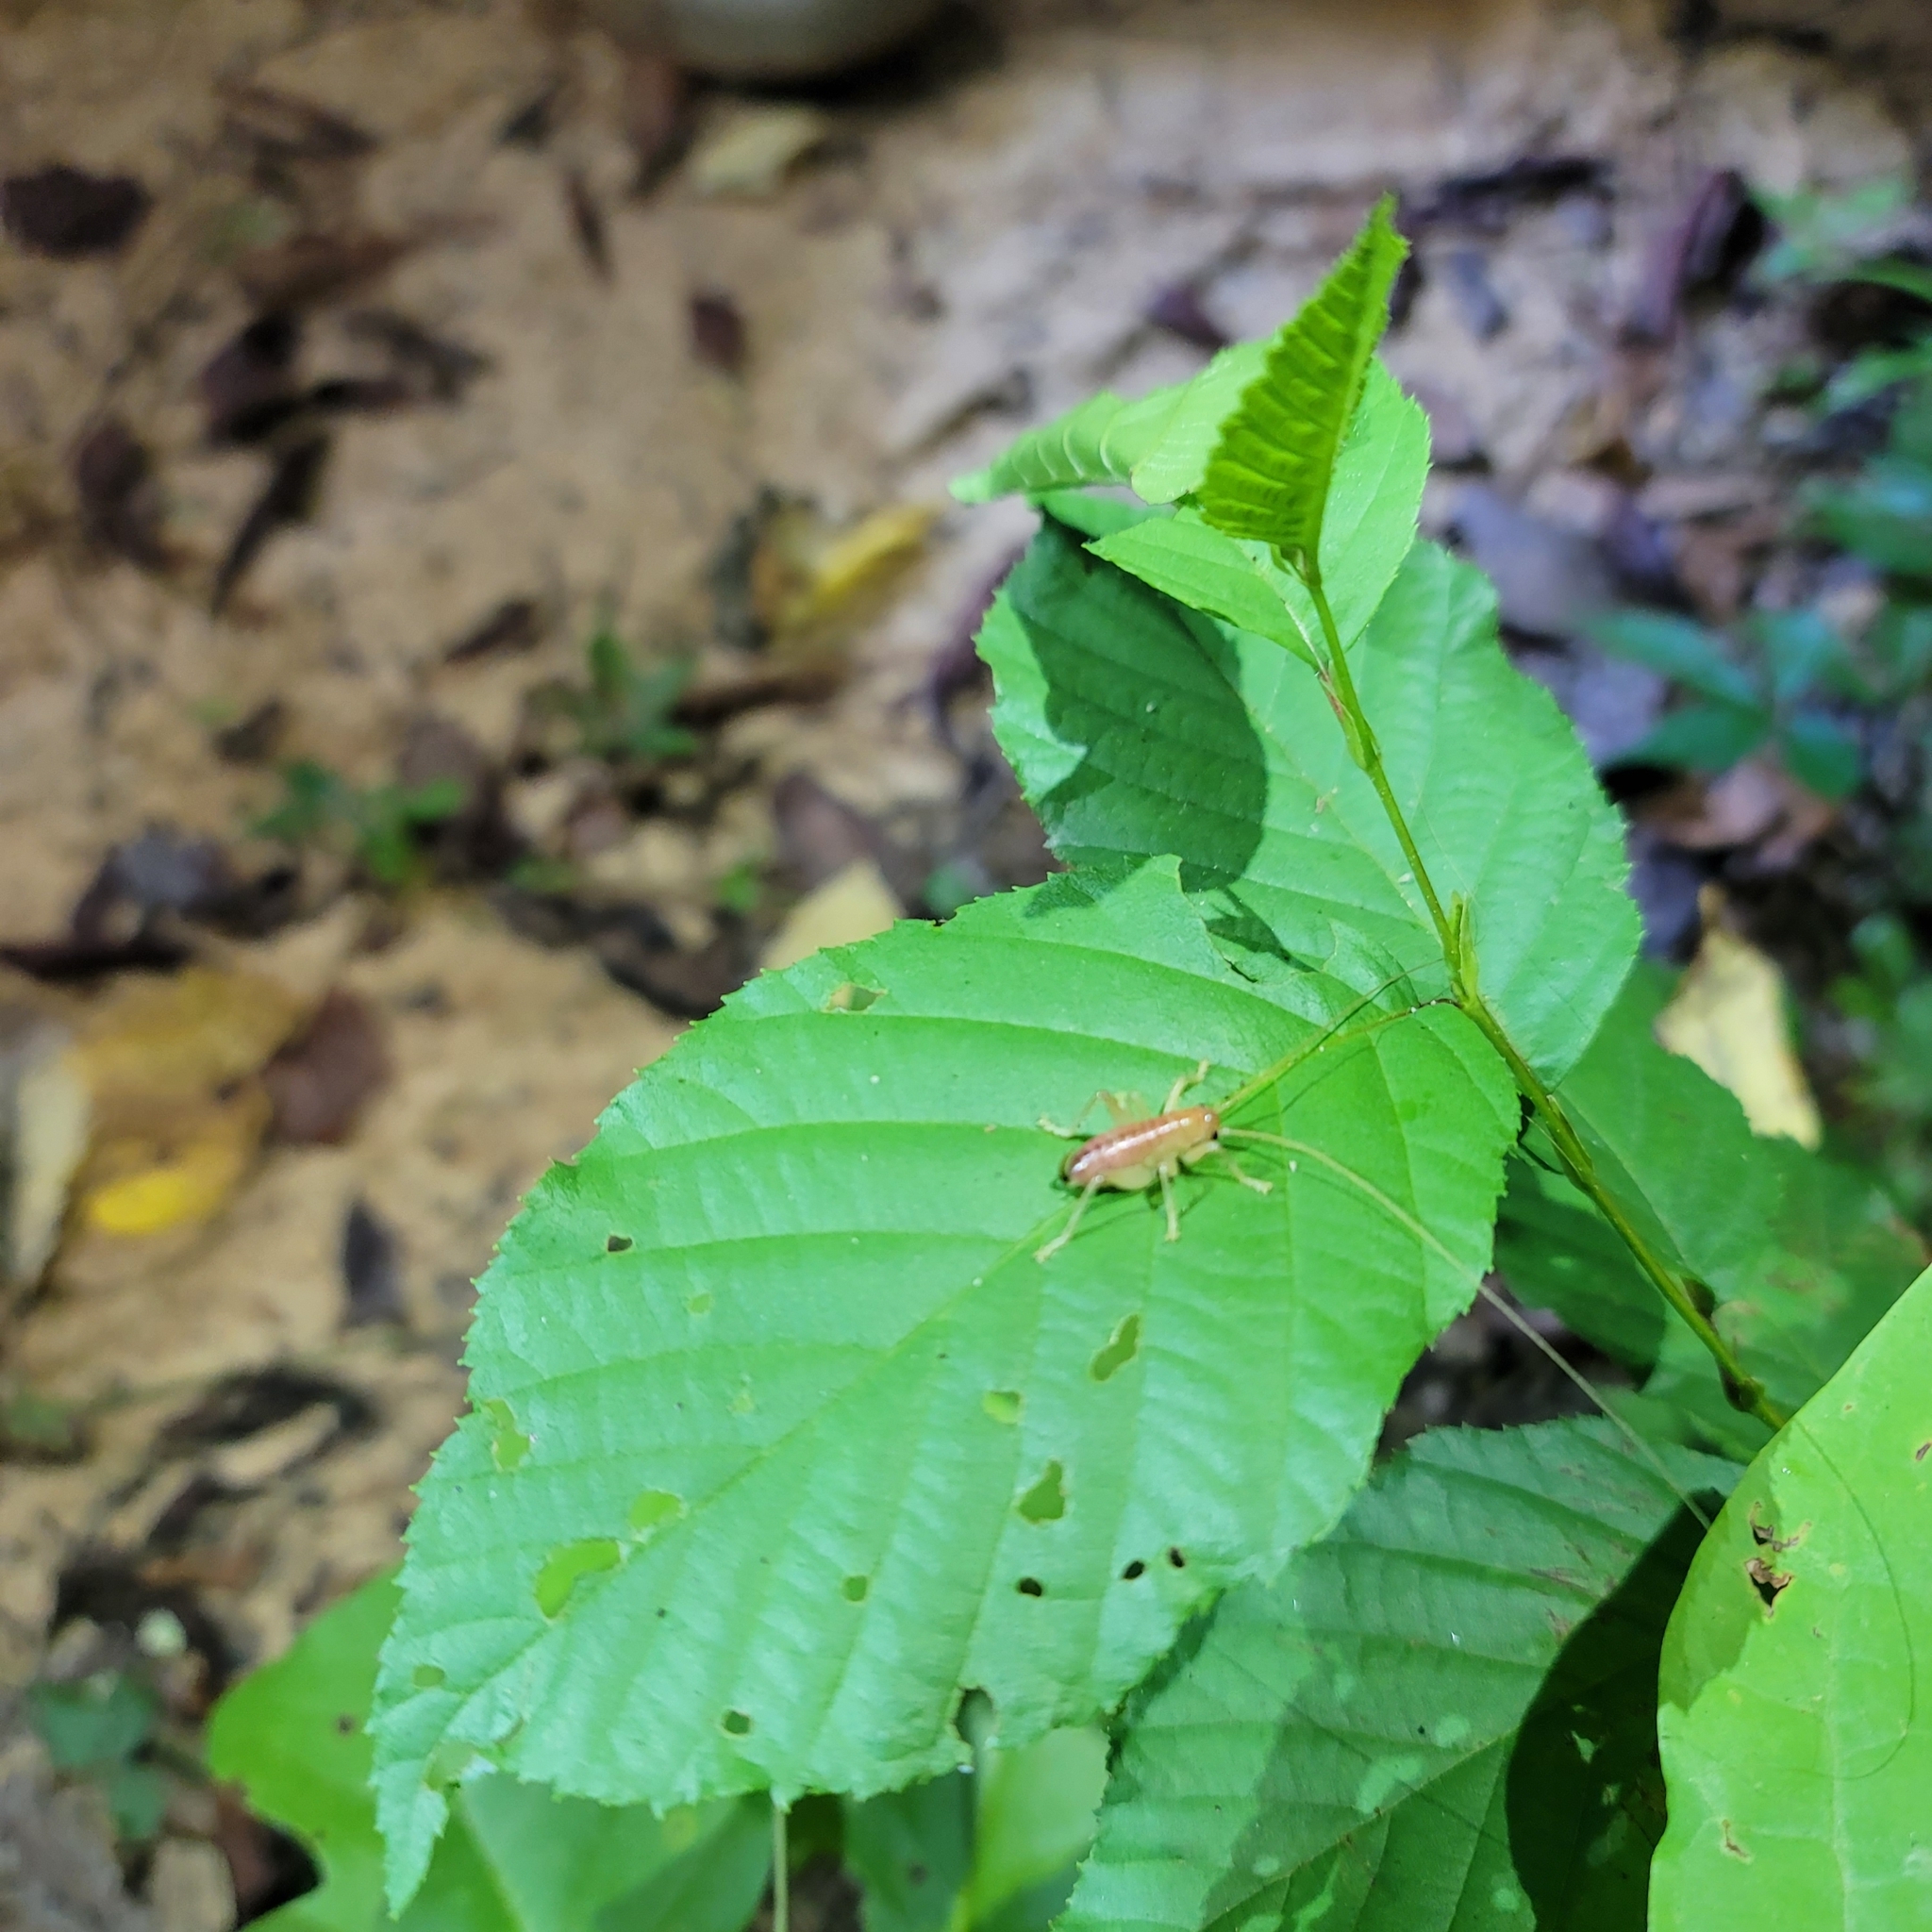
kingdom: Animalia
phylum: Arthropoda
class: Insecta
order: Orthoptera
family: Gryllacrididae
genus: Camptonotus
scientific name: Camptonotus carolinensis
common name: Carolina leaf-roller
